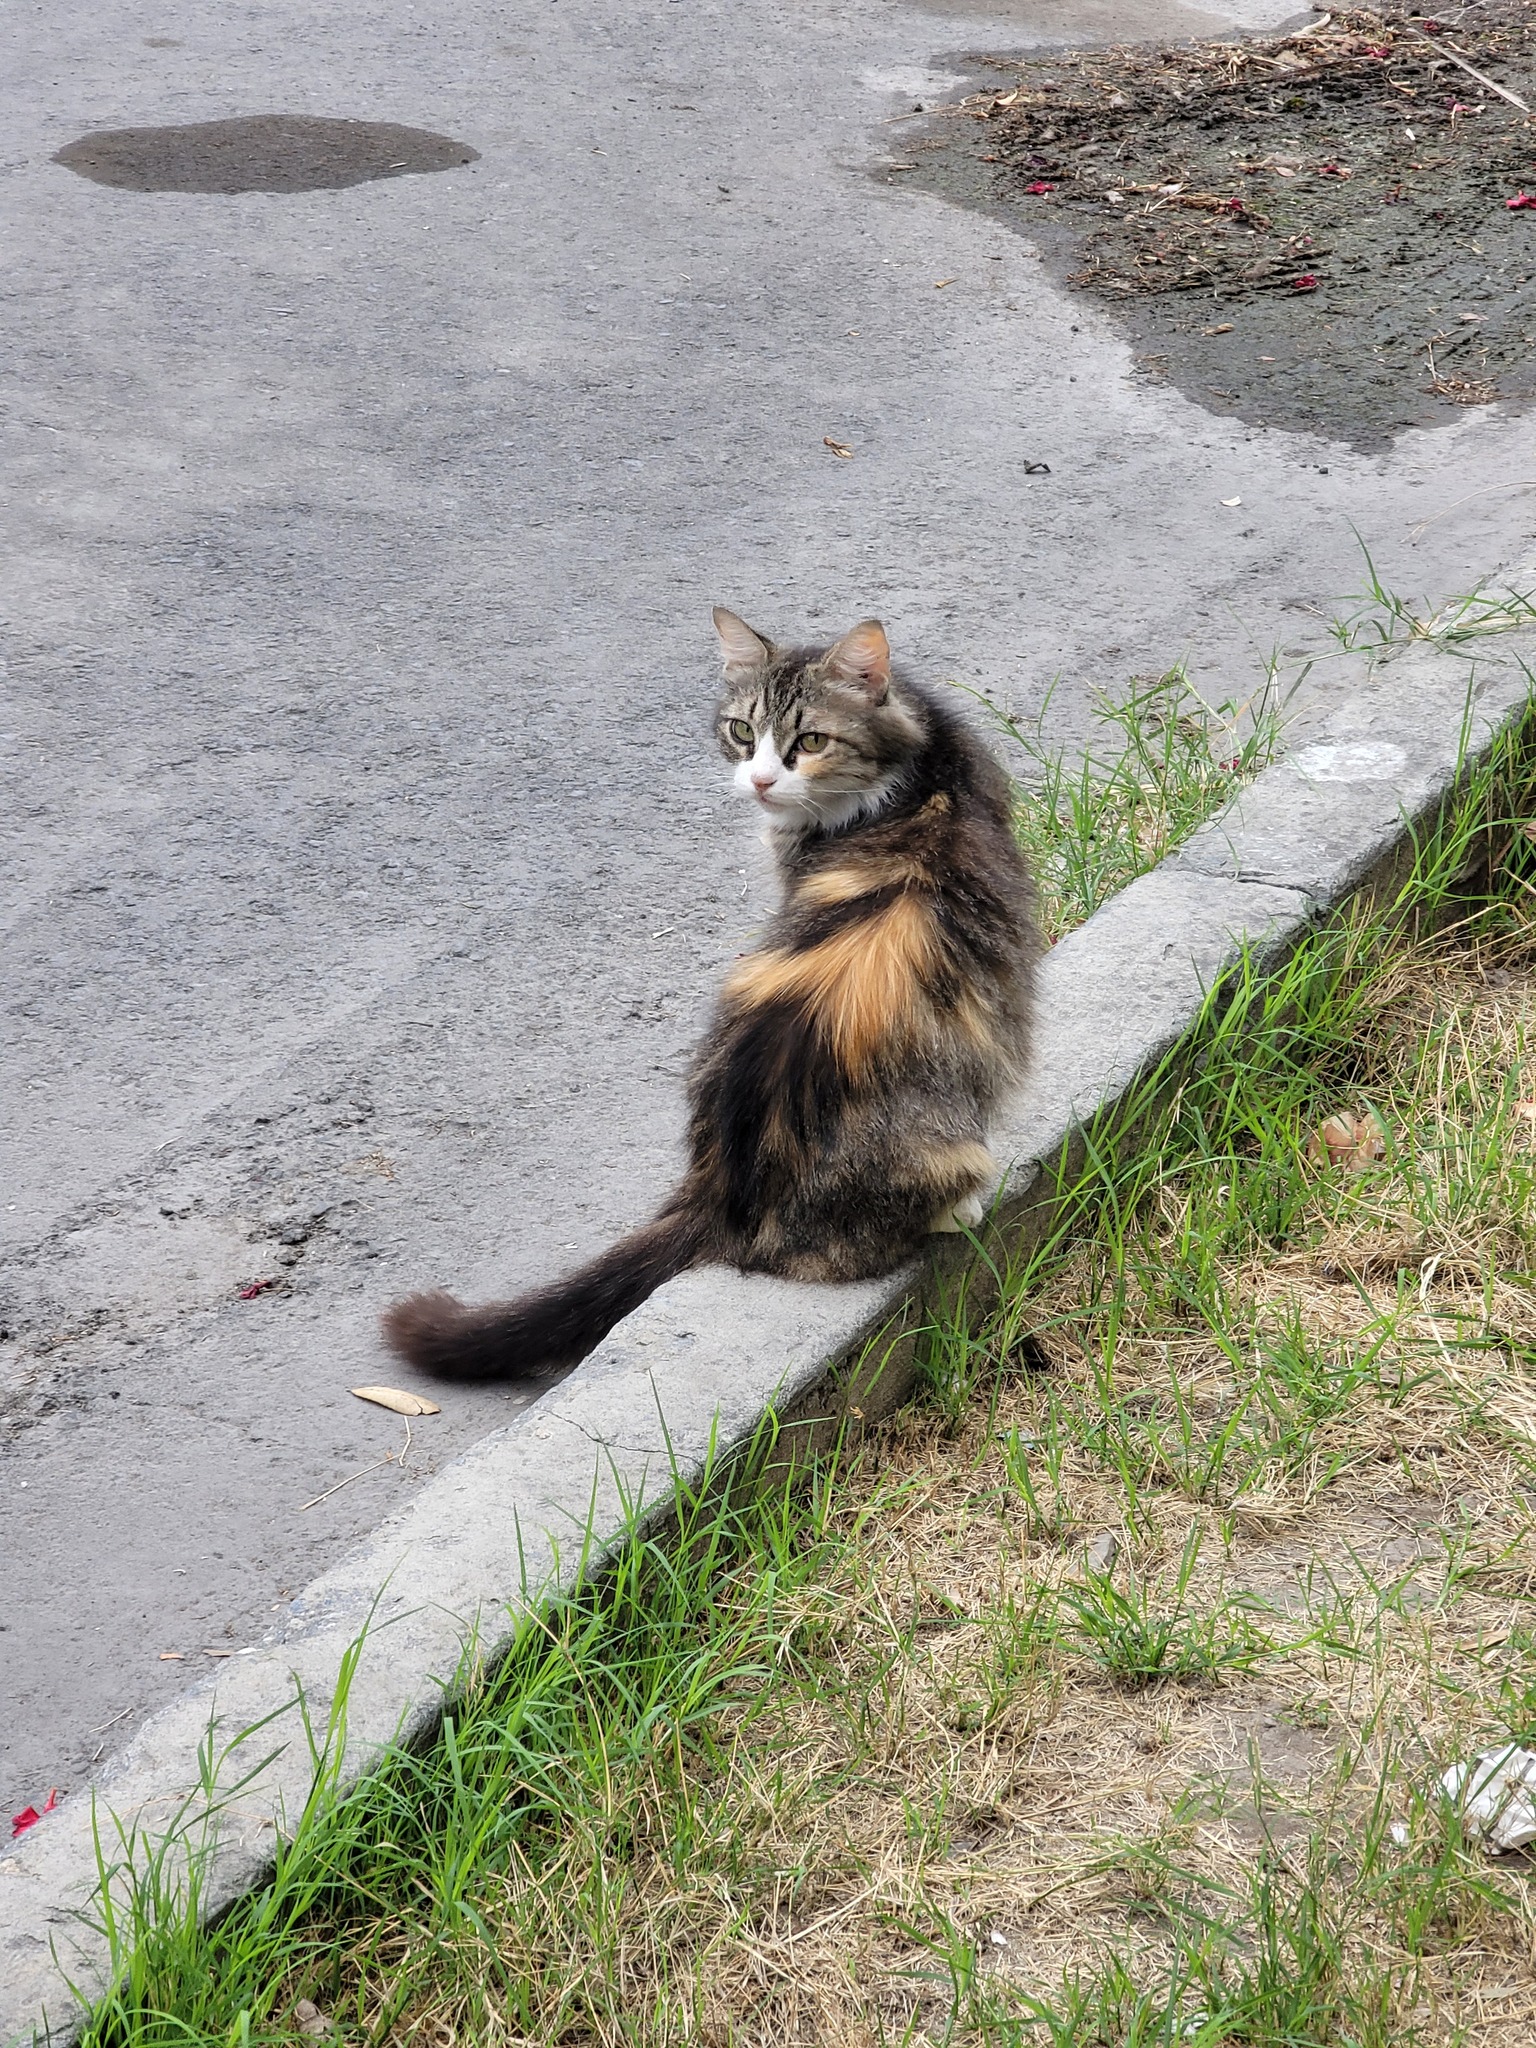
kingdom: Animalia
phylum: Chordata
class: Mammalia
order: Carnivora
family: Felidae
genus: Felis
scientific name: Felis catus
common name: Domestic cat
